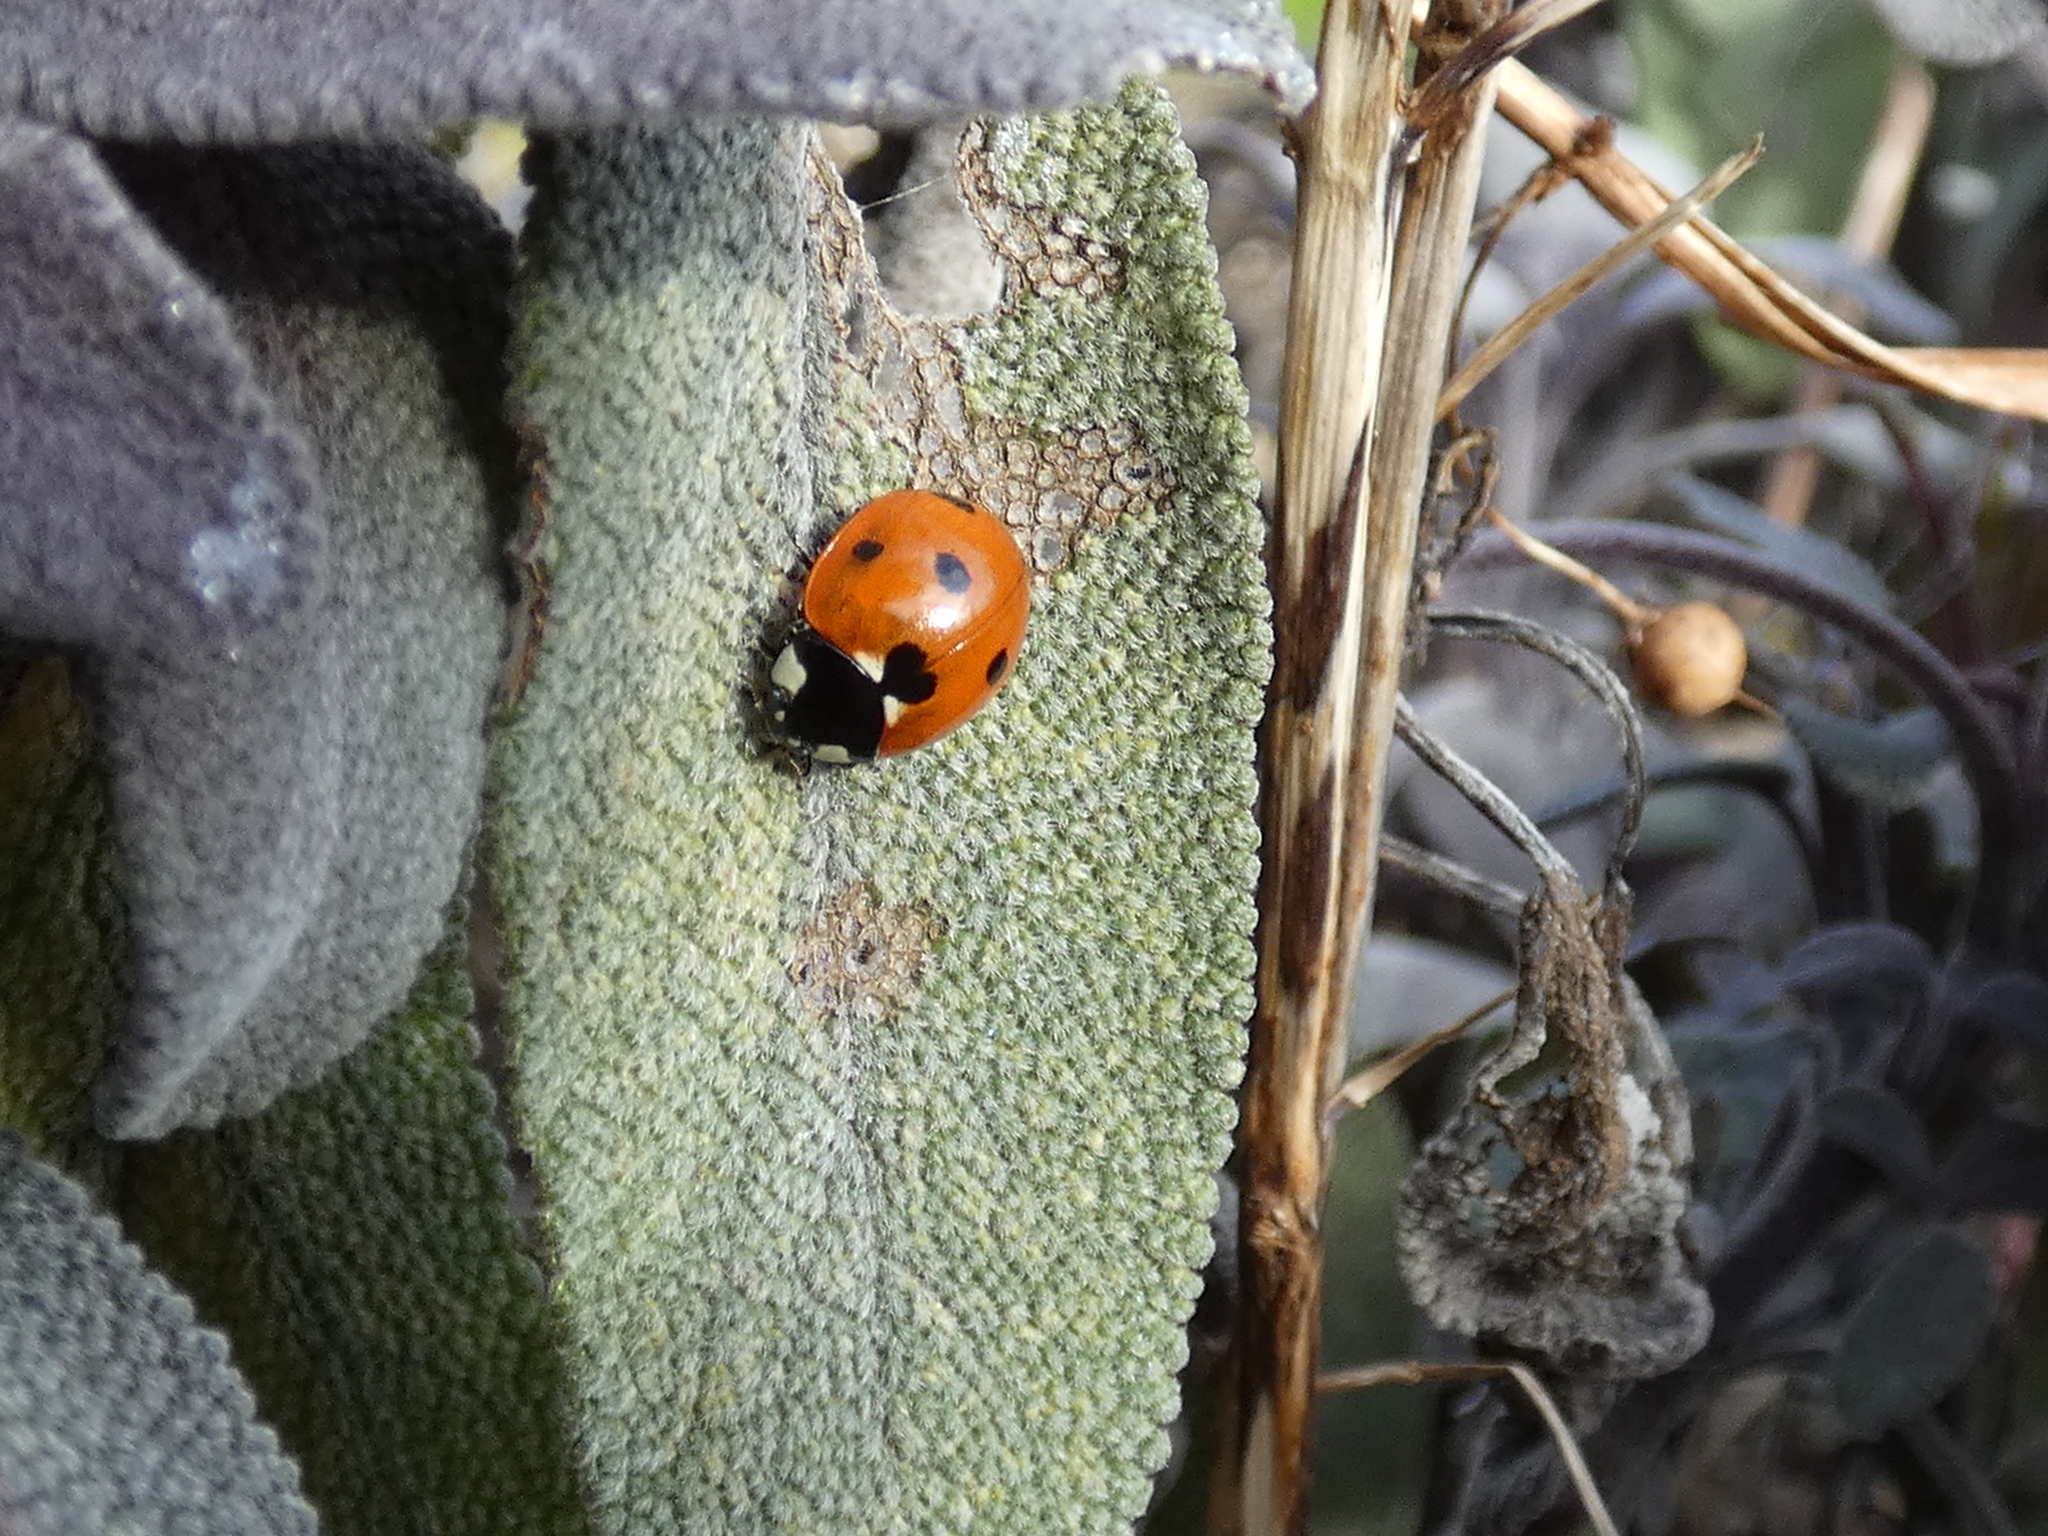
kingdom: Animalia
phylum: Arthropoda
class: Insecta
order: Coleoptera
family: Coccinellidae
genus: Coccinella
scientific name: Coccinella septempunctata
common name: Sevenspotted lady beetle
